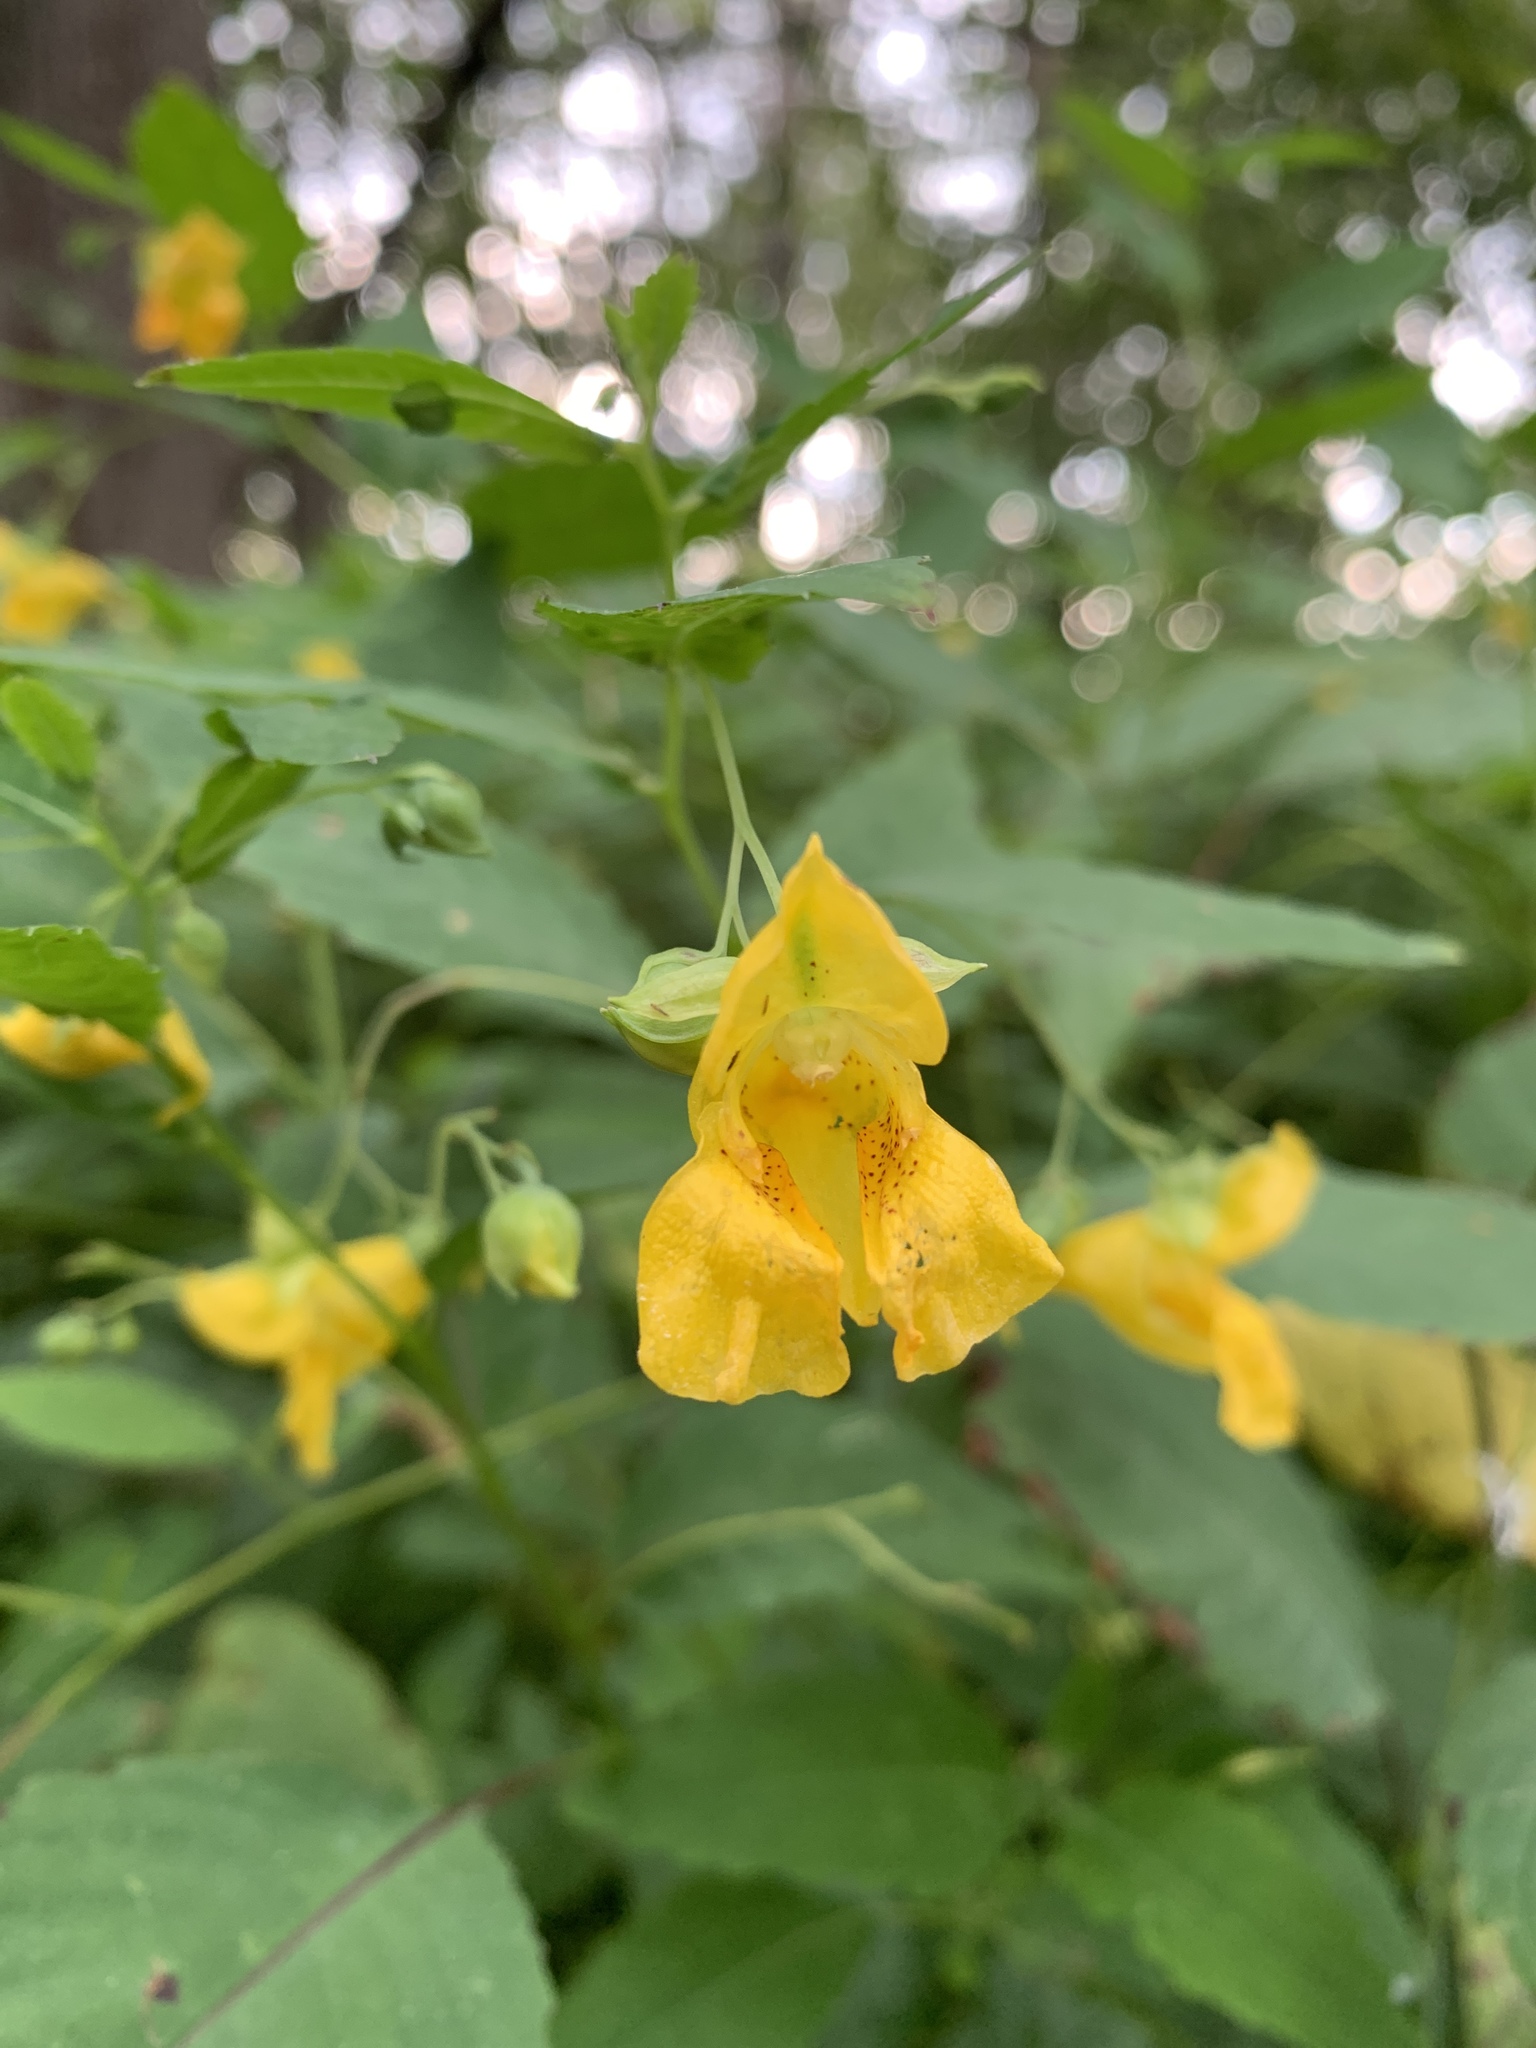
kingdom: Plantae
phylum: Tracheophyta
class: Magnoliopsida
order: Ericales
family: Balsaminaceae
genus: Impatiens
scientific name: Impatiens pallida
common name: Pale snapweed
